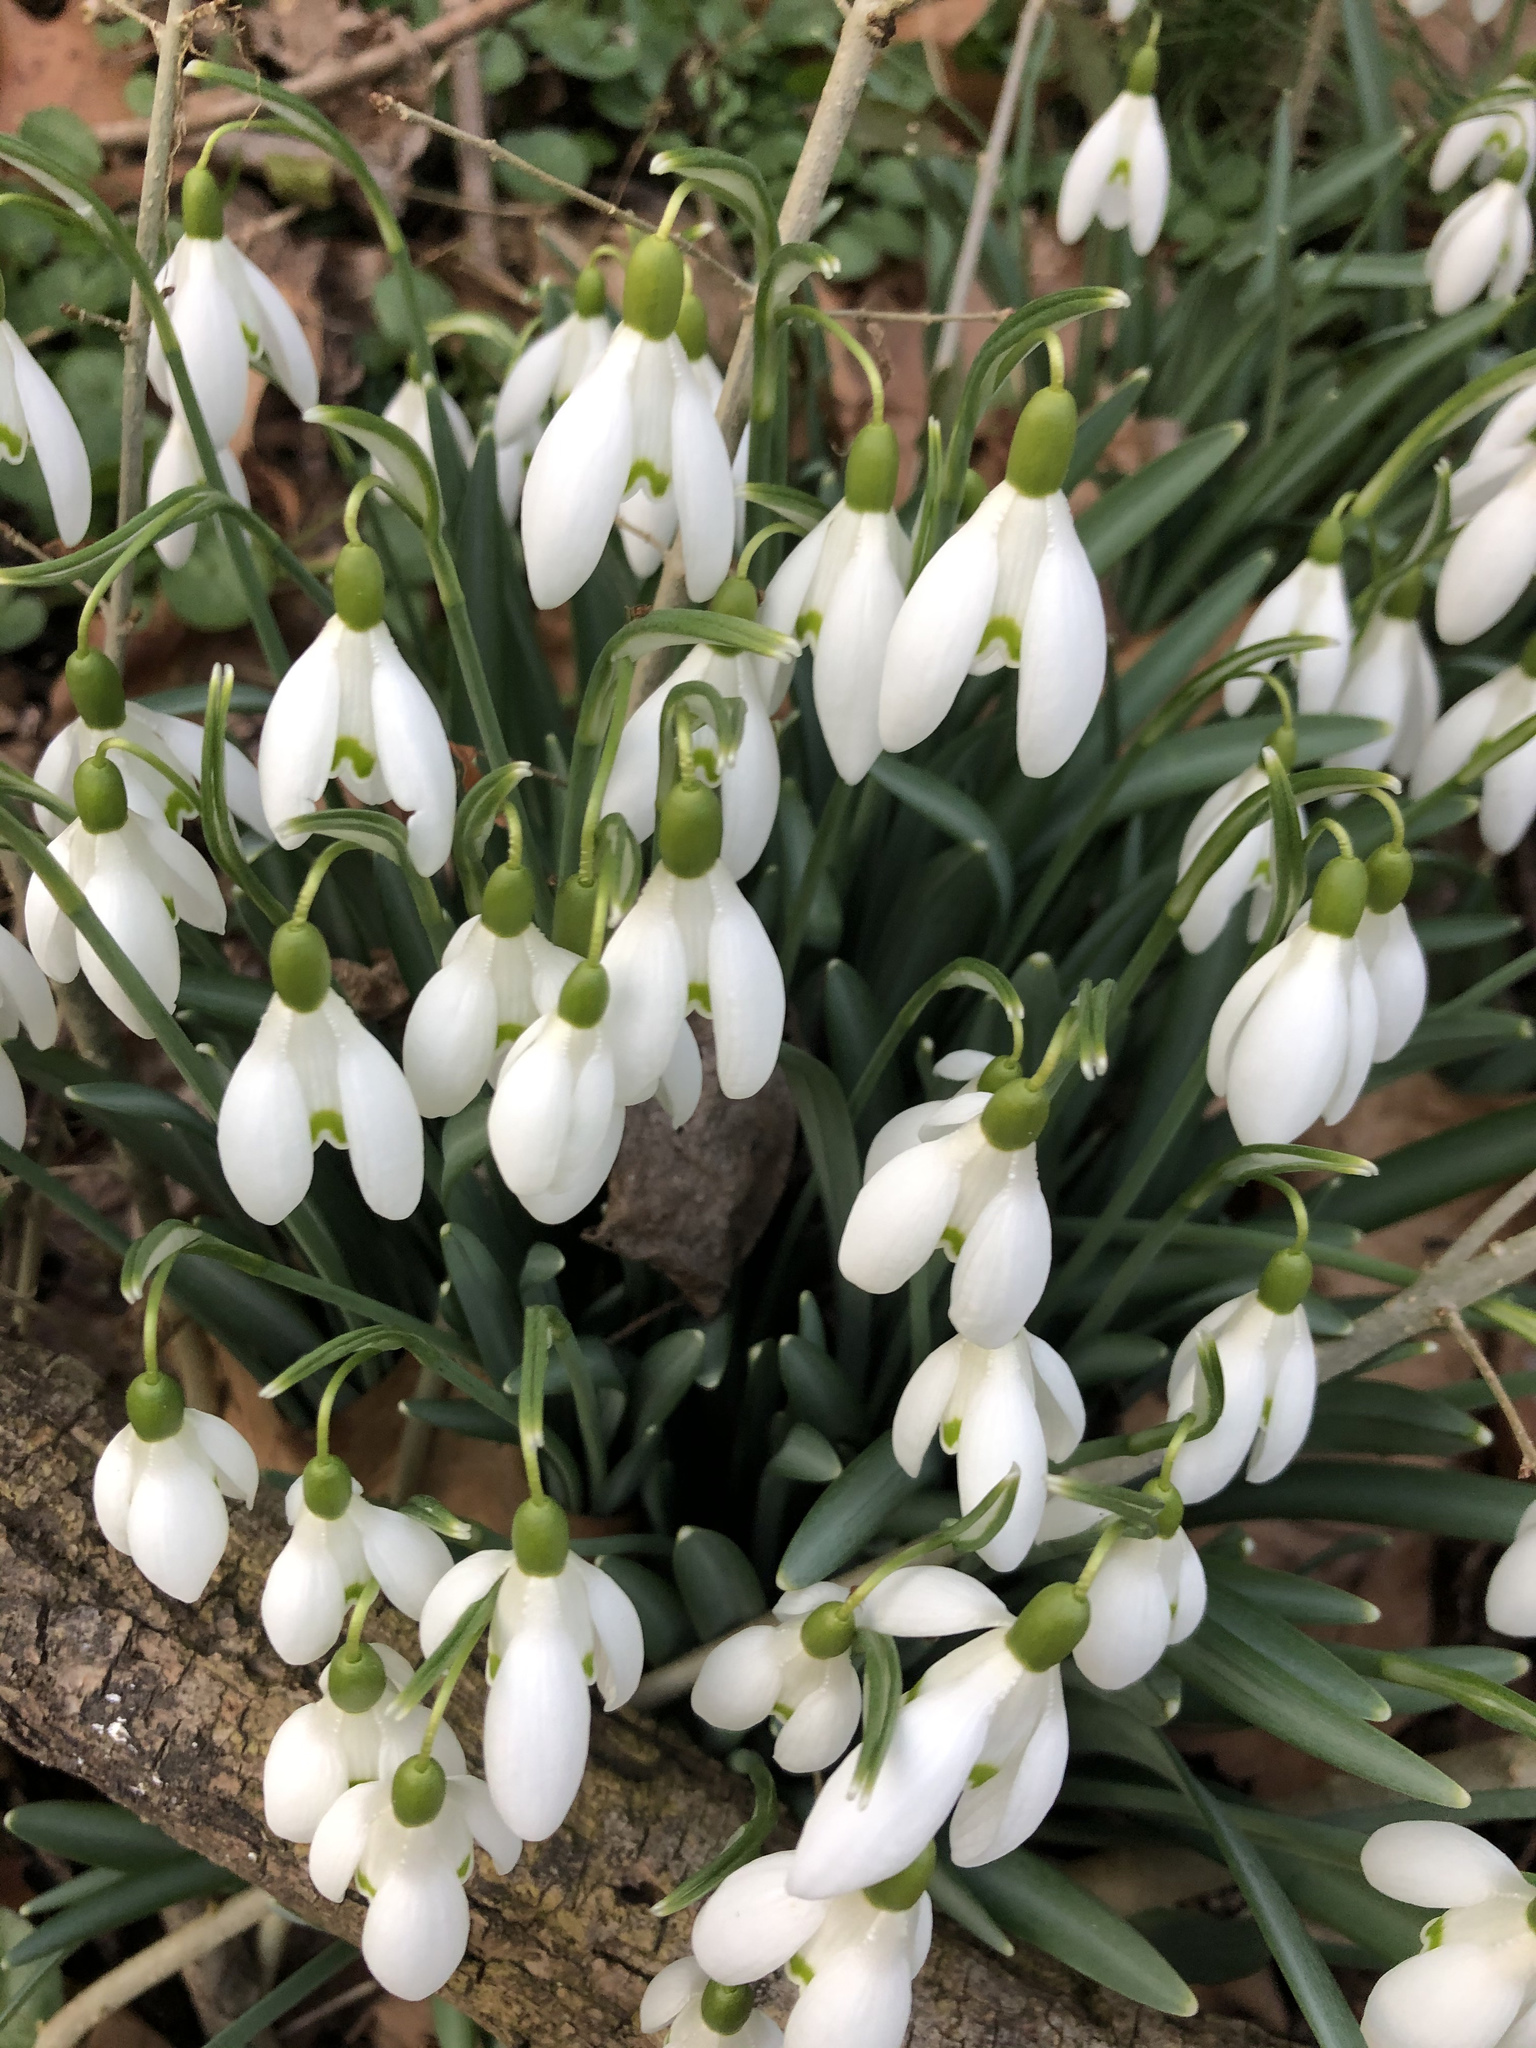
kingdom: Plantae
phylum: Tracheophyta
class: Liliopsida
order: Asparagales
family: Amaryllidaceae
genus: Galanthus
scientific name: Galanthus nivalis
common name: Snowdrop
